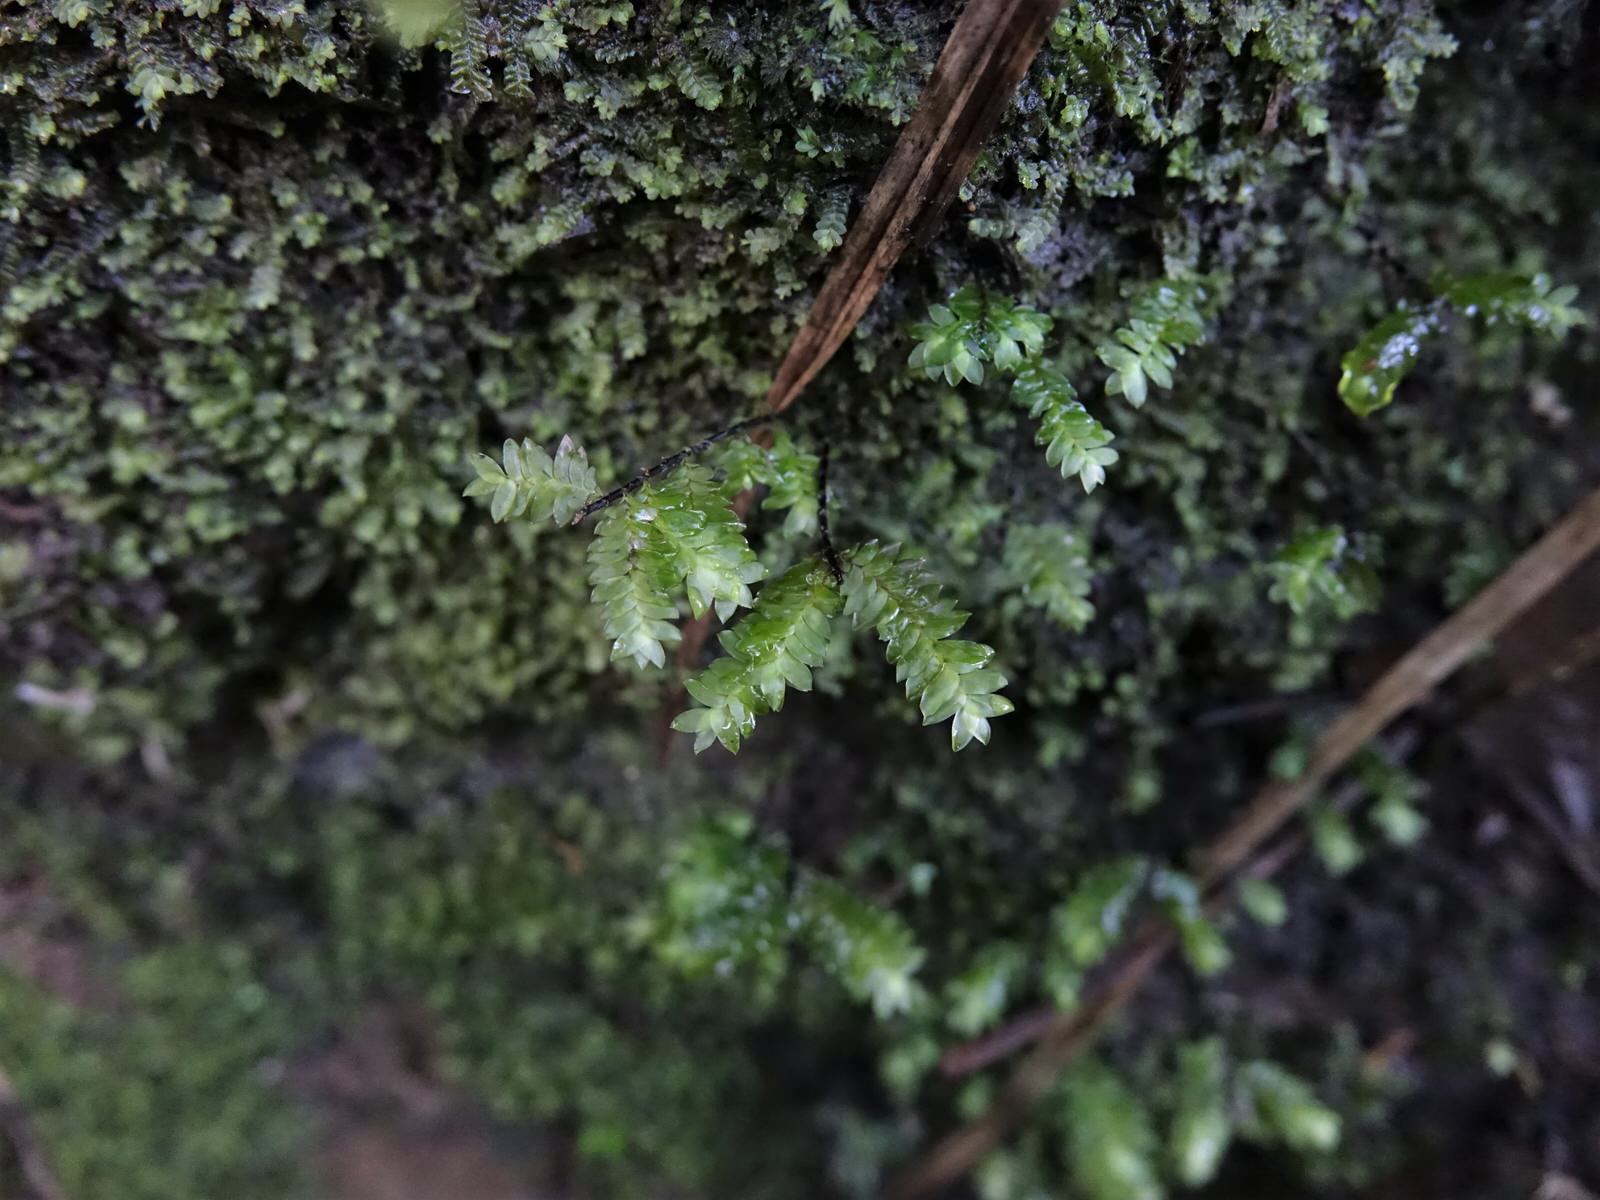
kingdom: Plantae
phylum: Bryophyta
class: Bryopsida
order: Hypopterygiales
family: Hypopterygiaceae
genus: Cyathophorum
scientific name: Cyathophorum bulbosum
